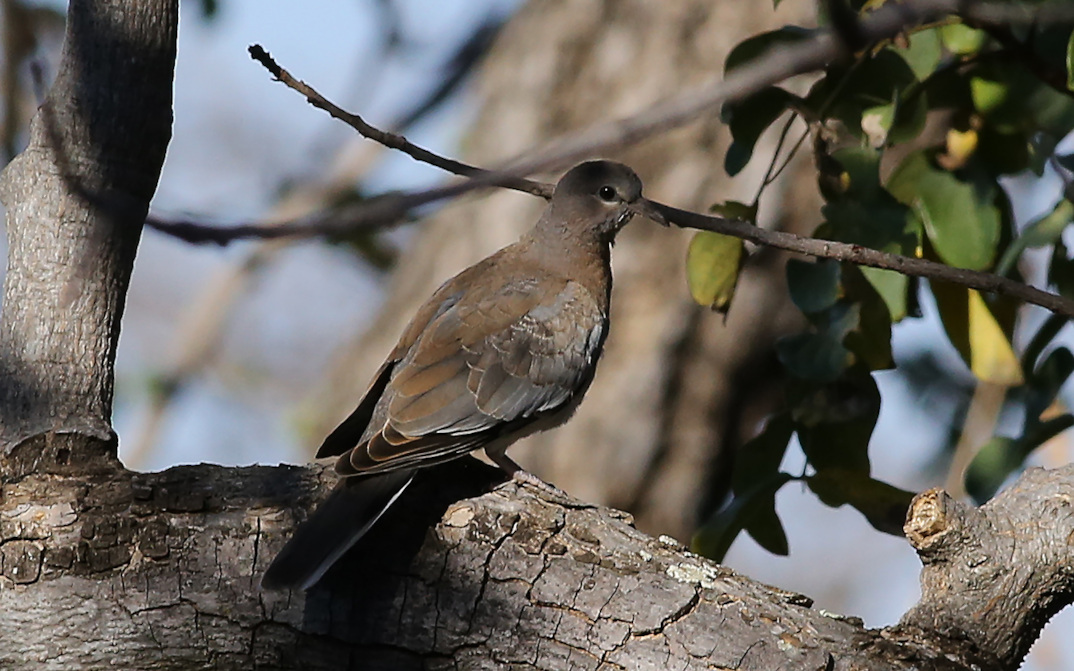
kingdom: Animalia
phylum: Chordata
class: Aves
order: Columbiformes
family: Columbidae
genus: Spilopelia
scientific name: Spilopelia senegalensis
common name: Laughing dove
